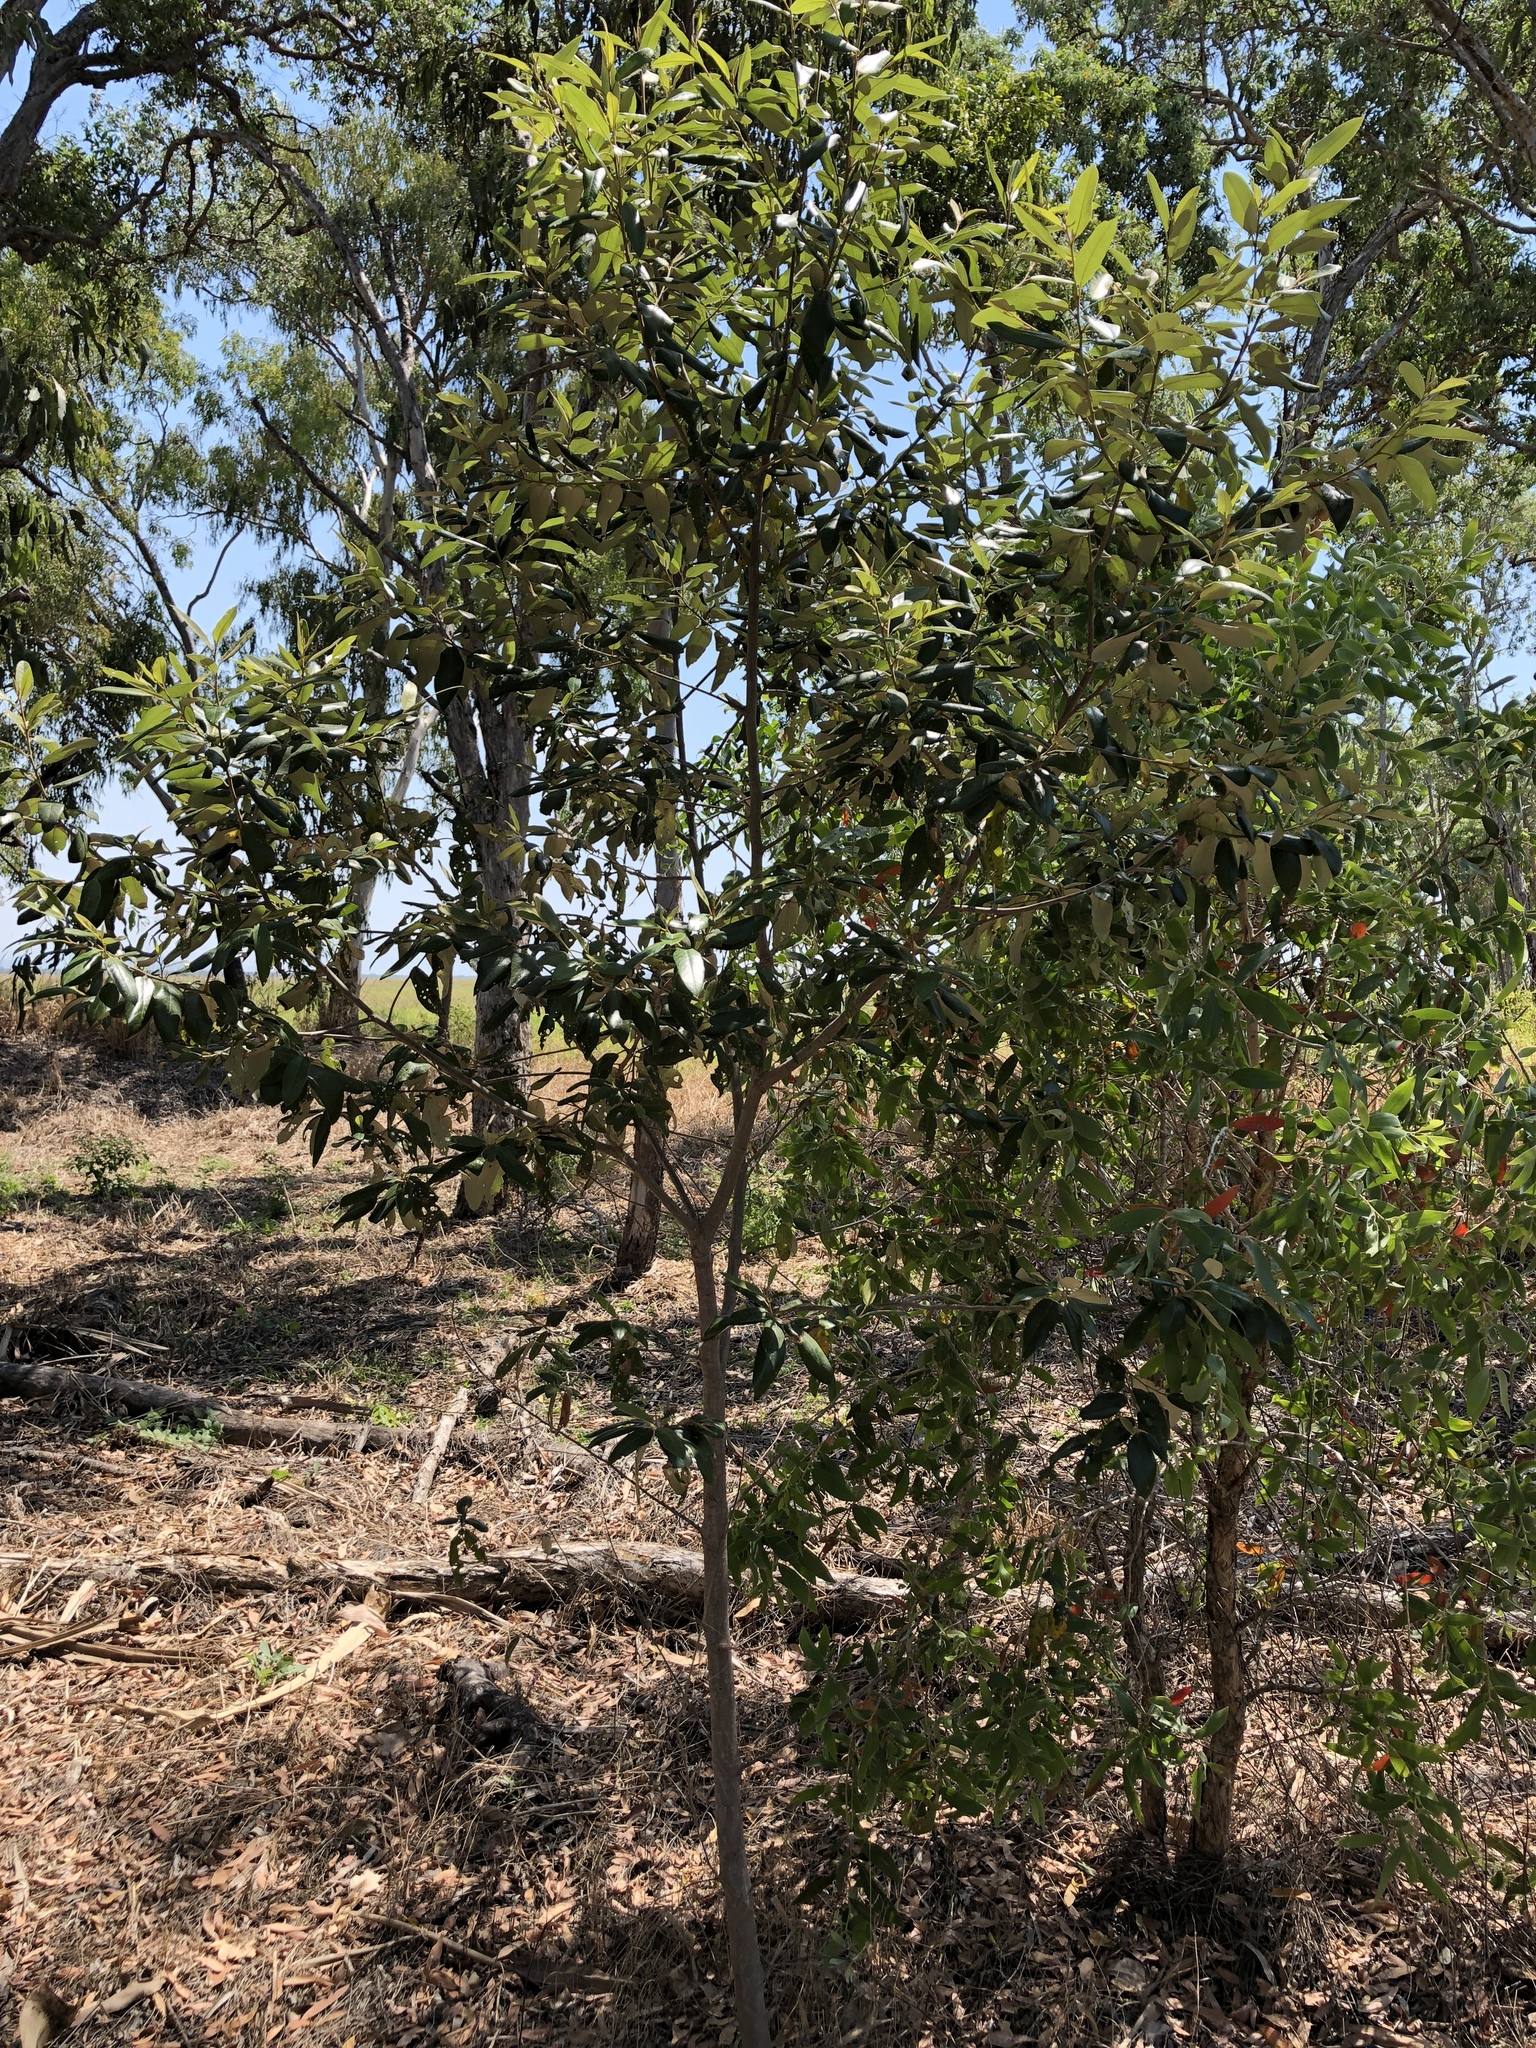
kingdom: Plantae
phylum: Tracheophyta
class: Magnoliopsida
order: Rosales
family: Rhamnaceae
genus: Alphitonia
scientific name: Alphitonia excelsa
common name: Red ash
